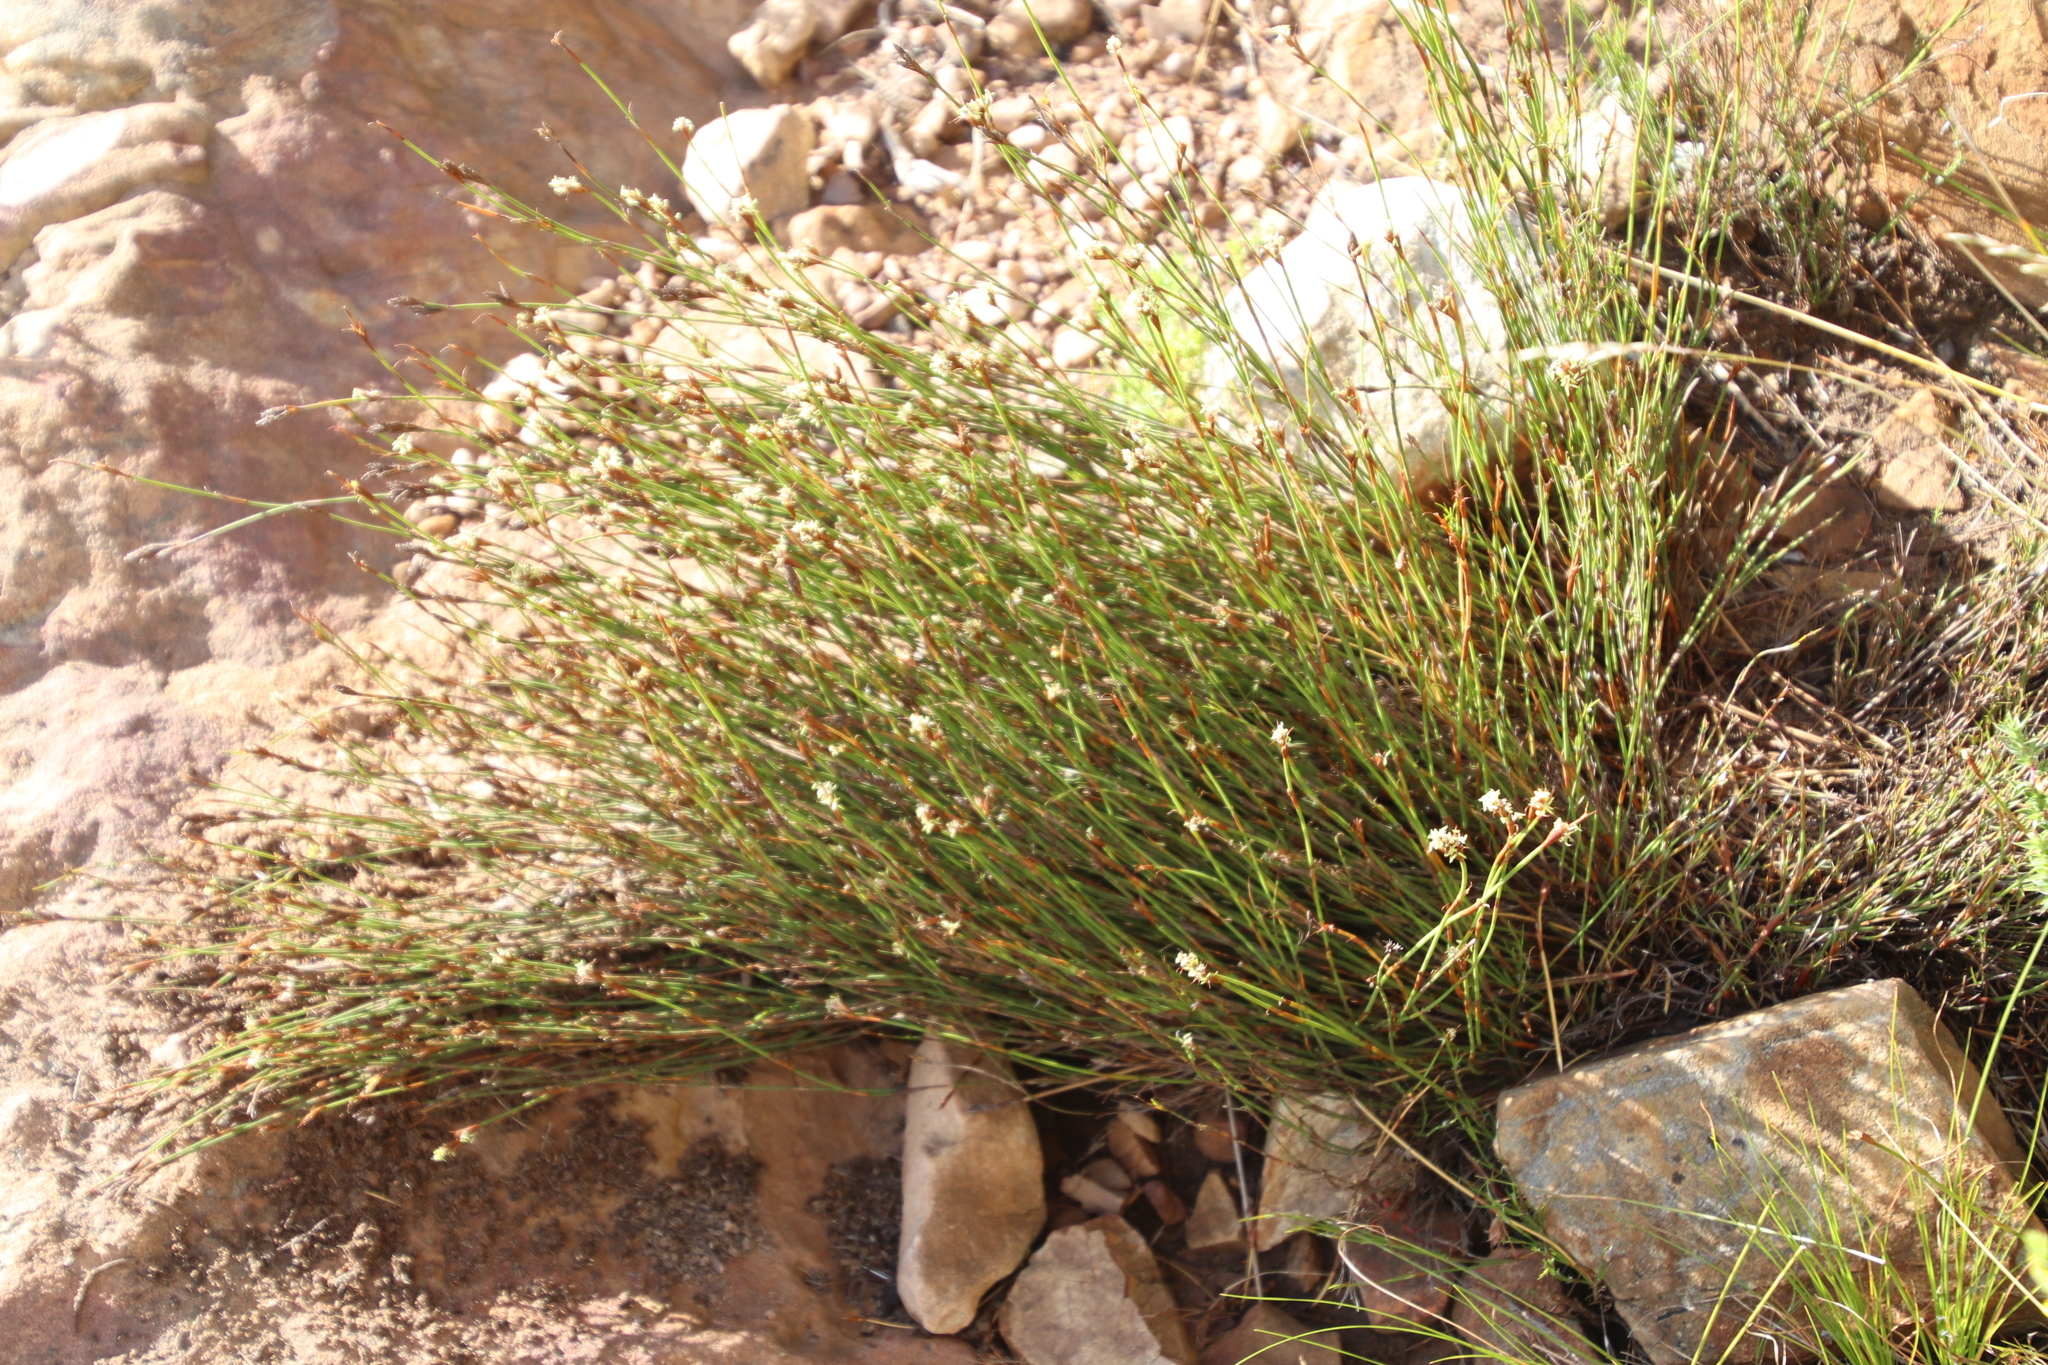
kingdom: Plantae
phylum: Tracheophyta
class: Liliopsida
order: Poales
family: Restionaceae
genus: Restio
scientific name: Restio capensis
